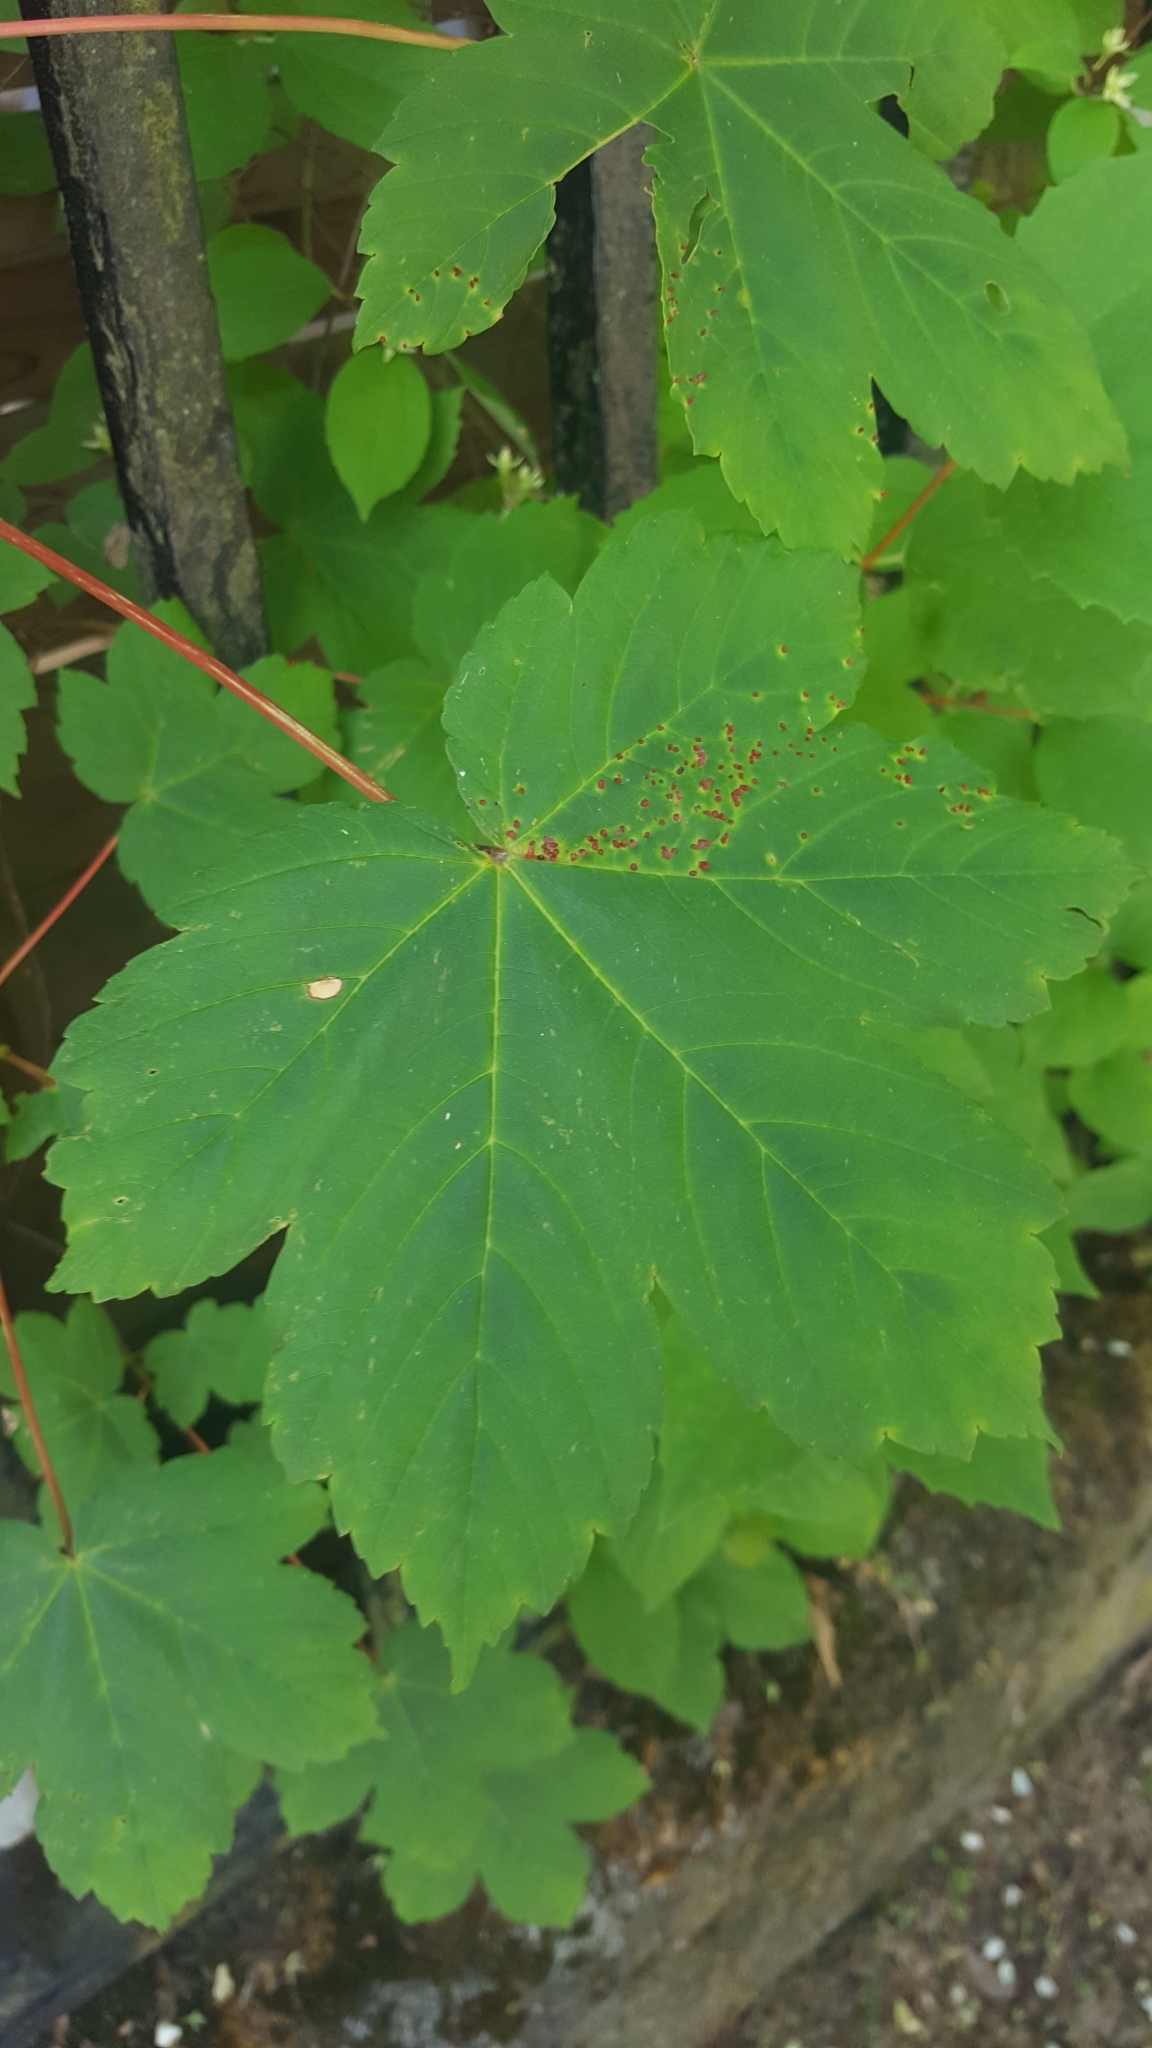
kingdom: Plantae
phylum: Tracheophyta
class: Magnoliopsida
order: Sapindales
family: Sapindaceae
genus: Acer
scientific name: Acer pseudoplatanus
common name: Sycamore
